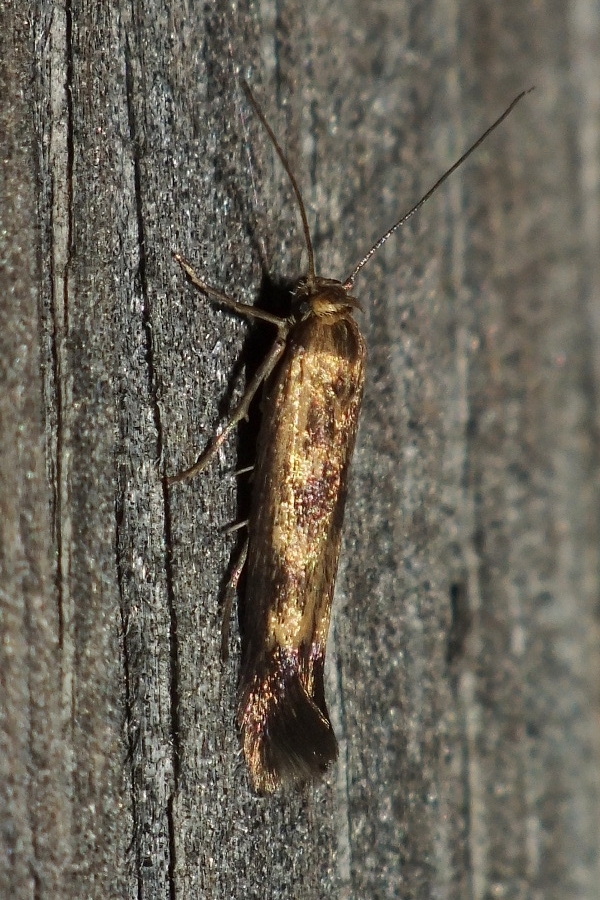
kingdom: Animalia
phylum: Arthropoda
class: Insecta
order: Lepidoptera
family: Scythrididae
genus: Scythris
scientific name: Scythris limbella
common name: Goosefoot owlet
